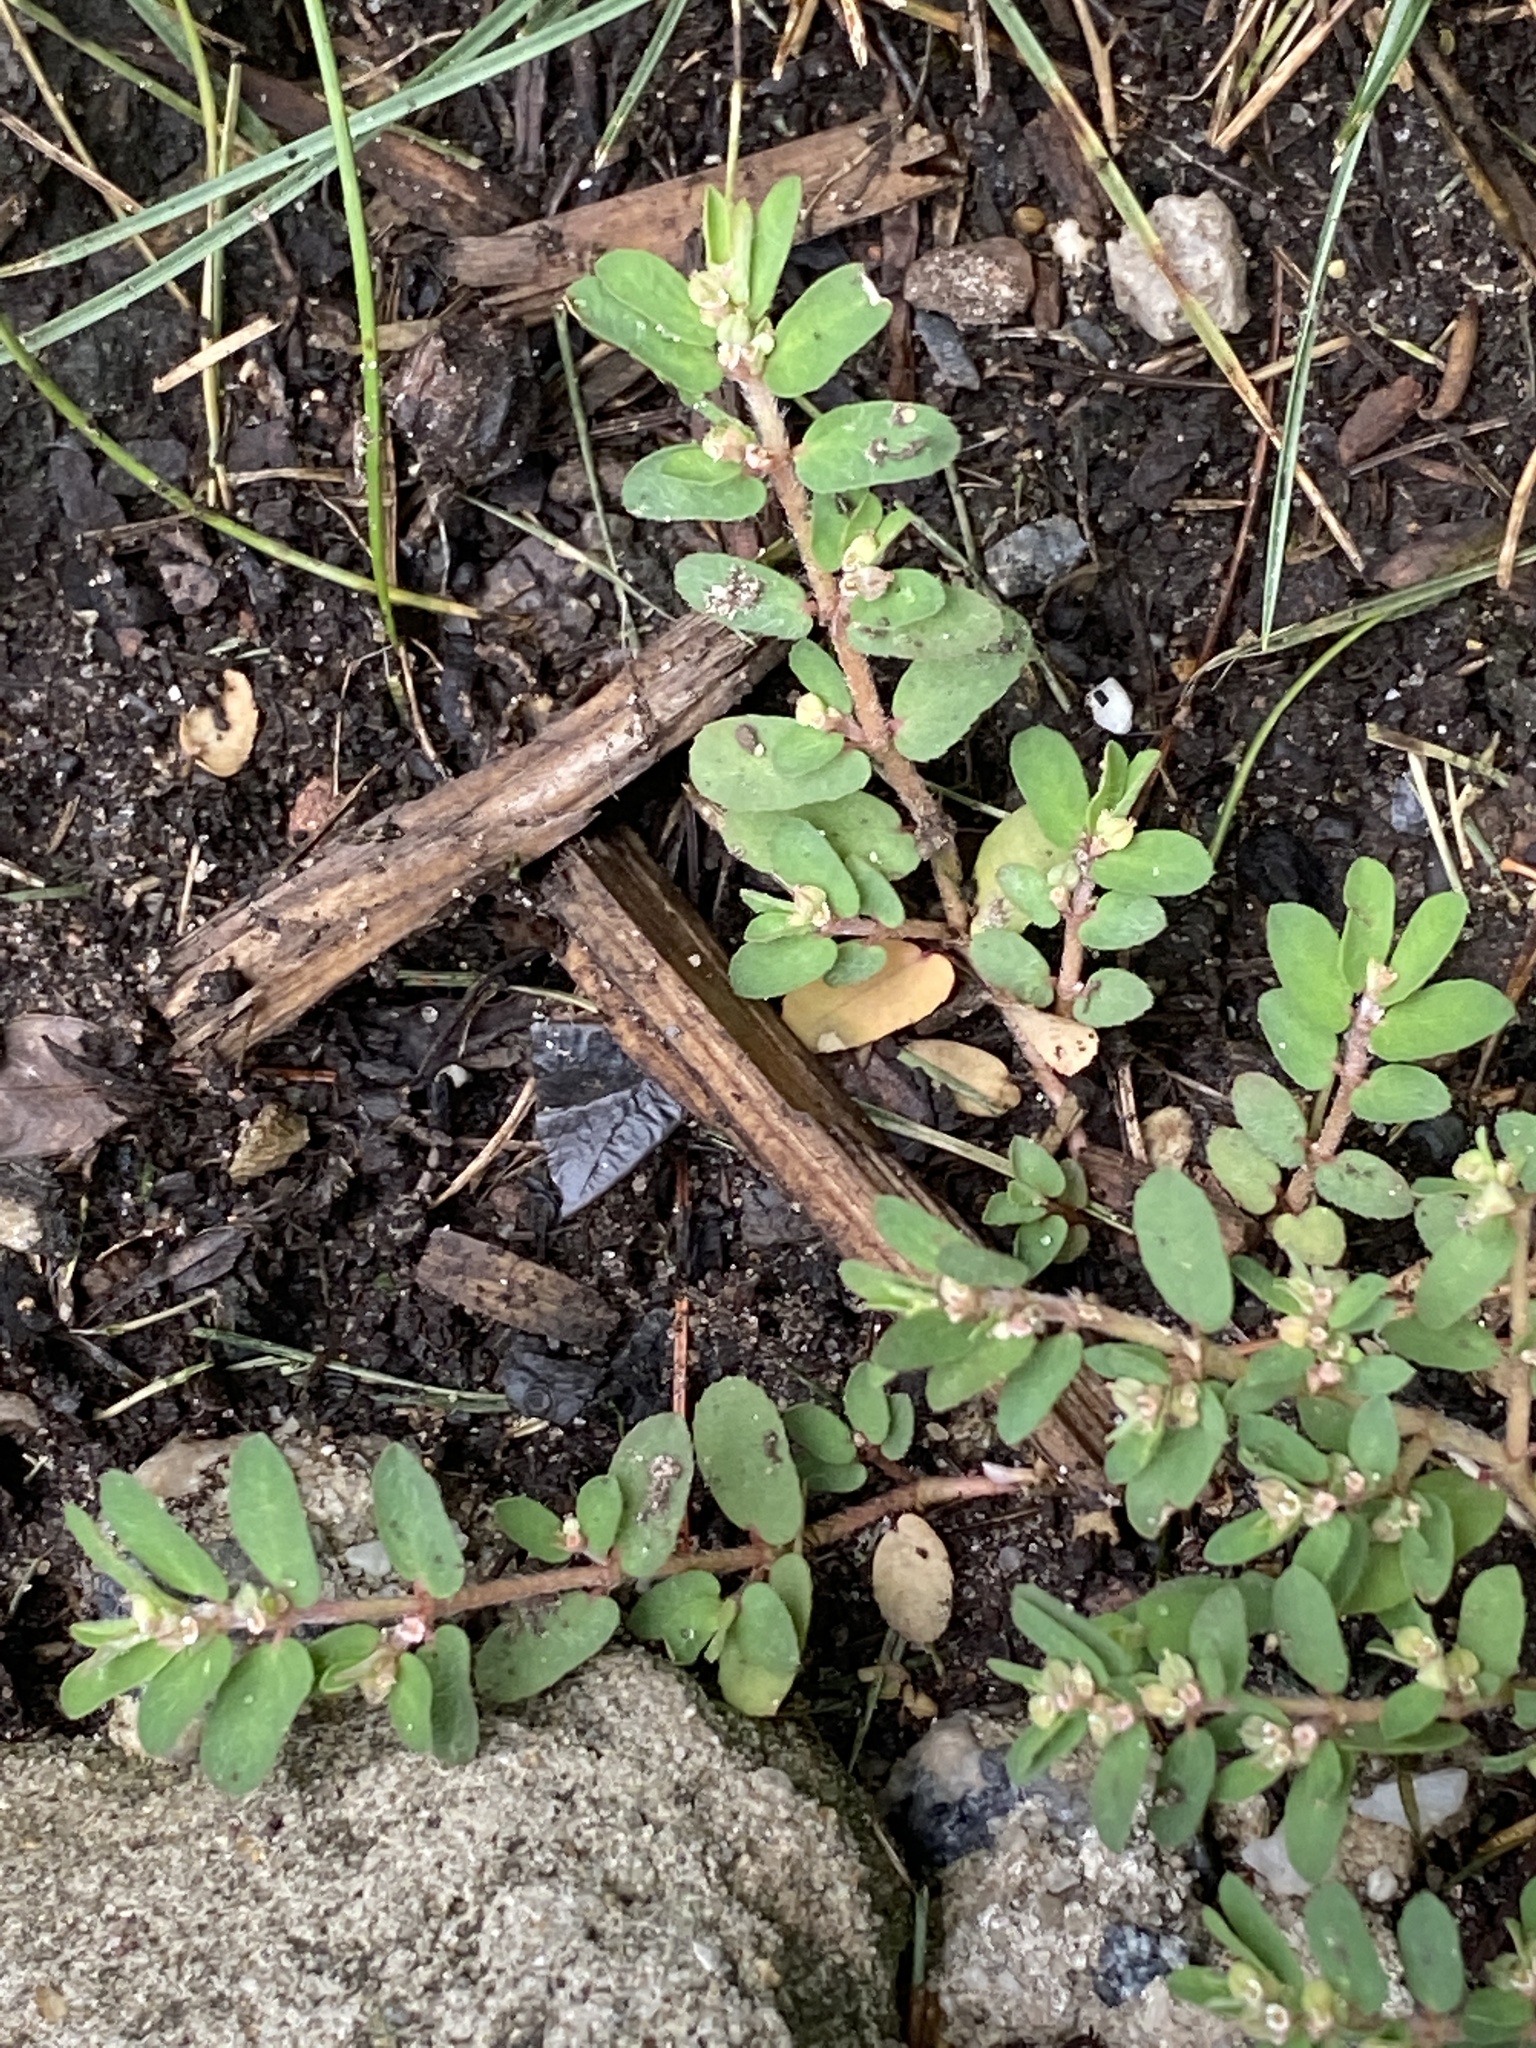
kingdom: Plantae
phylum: Tracheophyta
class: Magnoliopsida
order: Malpighiales
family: Euphorbiaceae
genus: Euphorbia
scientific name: Euphorbia maculata
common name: Spotted spurge
